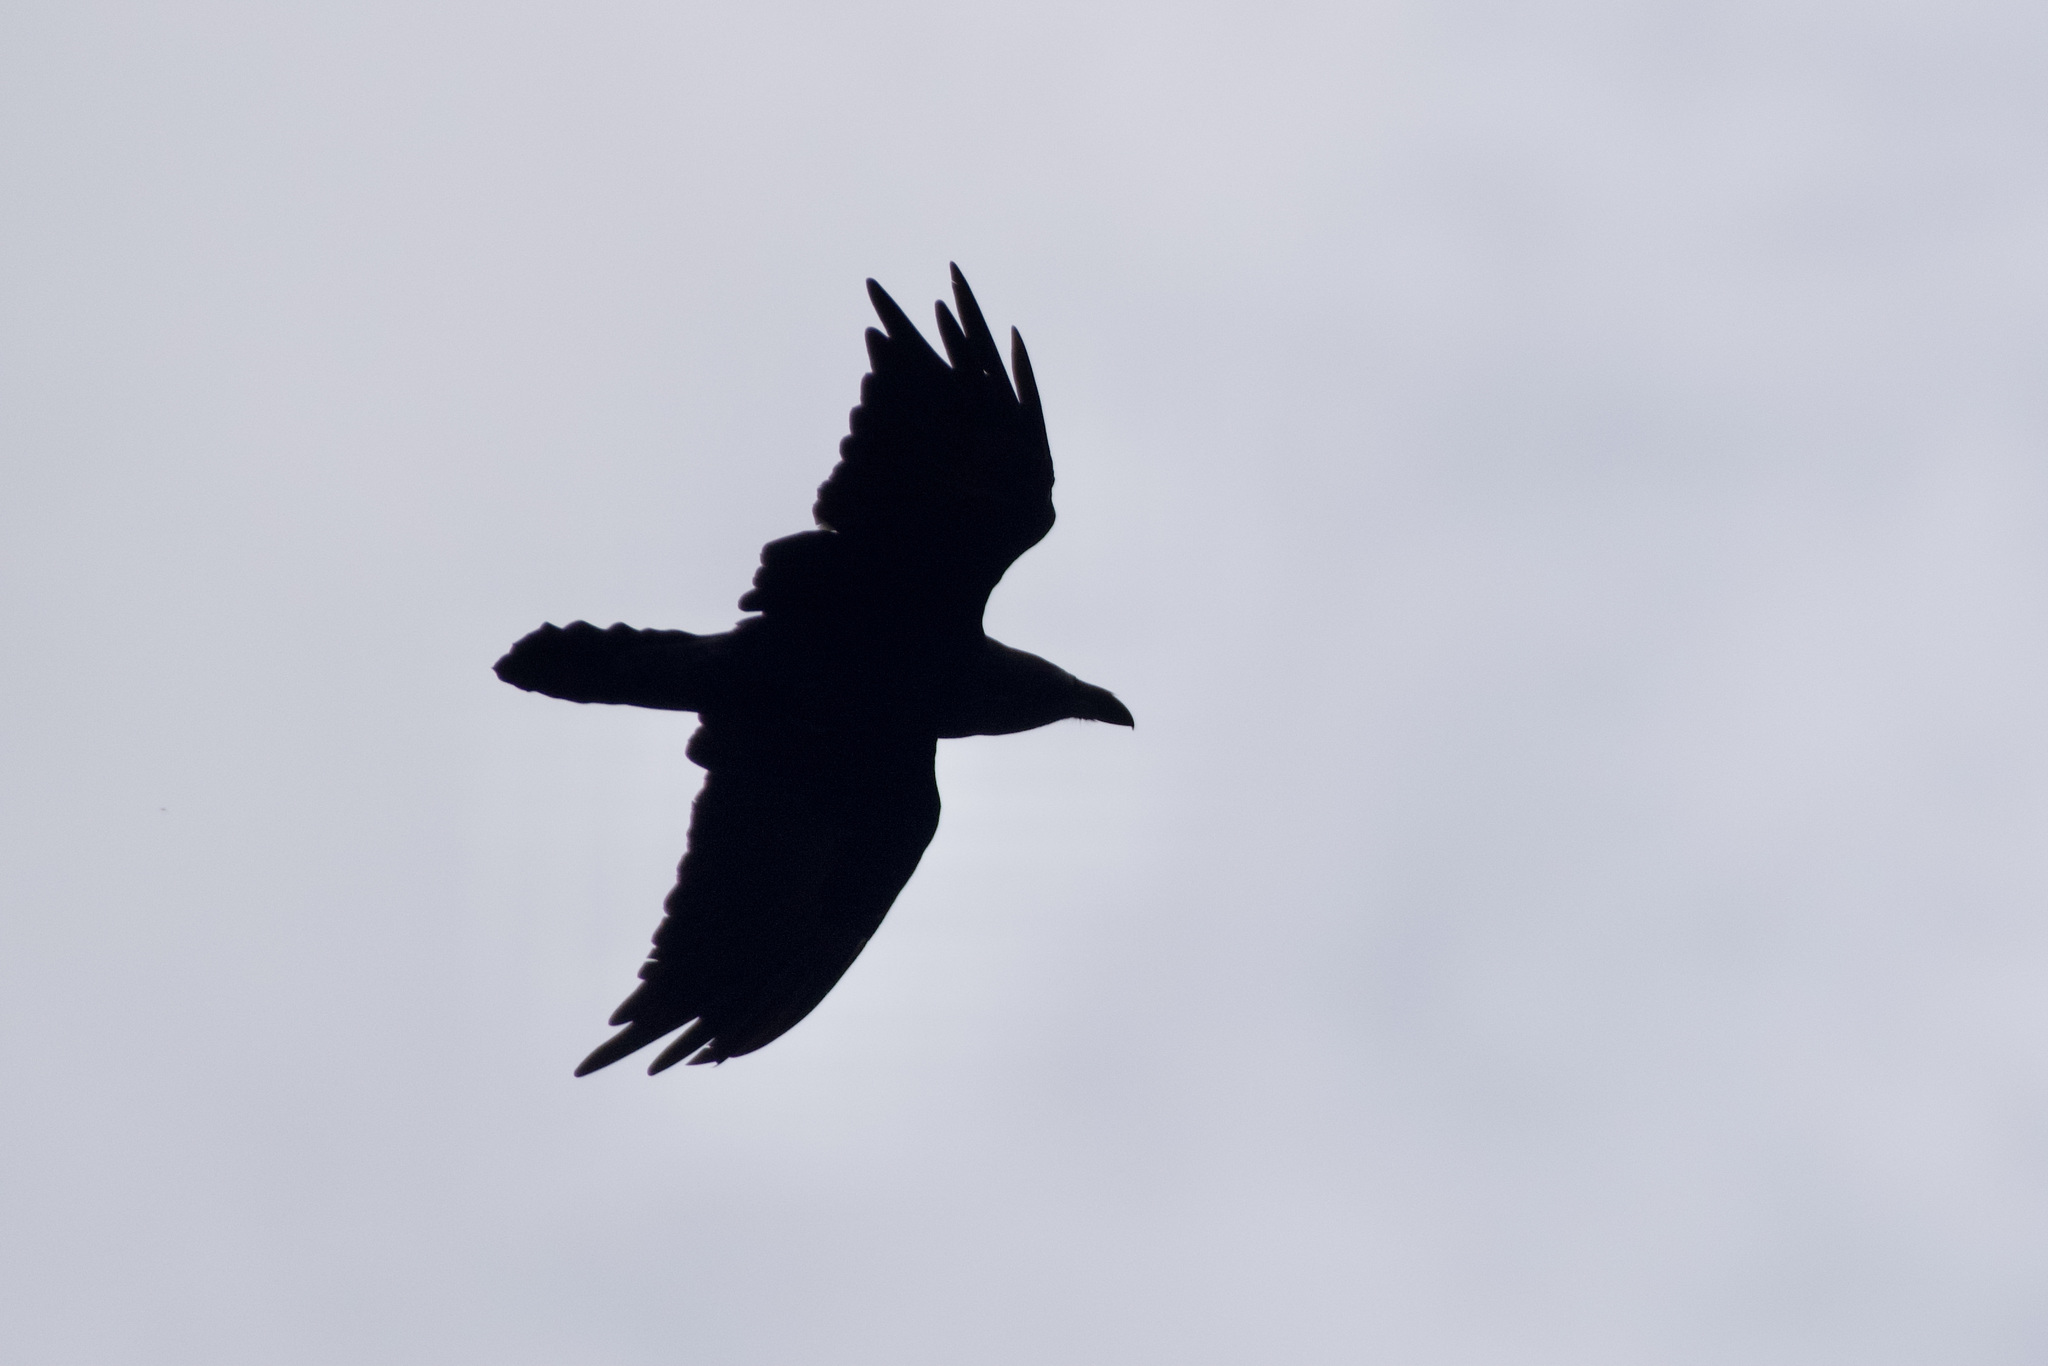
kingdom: Animalia
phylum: Chordata
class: Aves
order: Passeriformes
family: Corvidae
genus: Corvus
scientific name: Corvus corax
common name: Common raven
